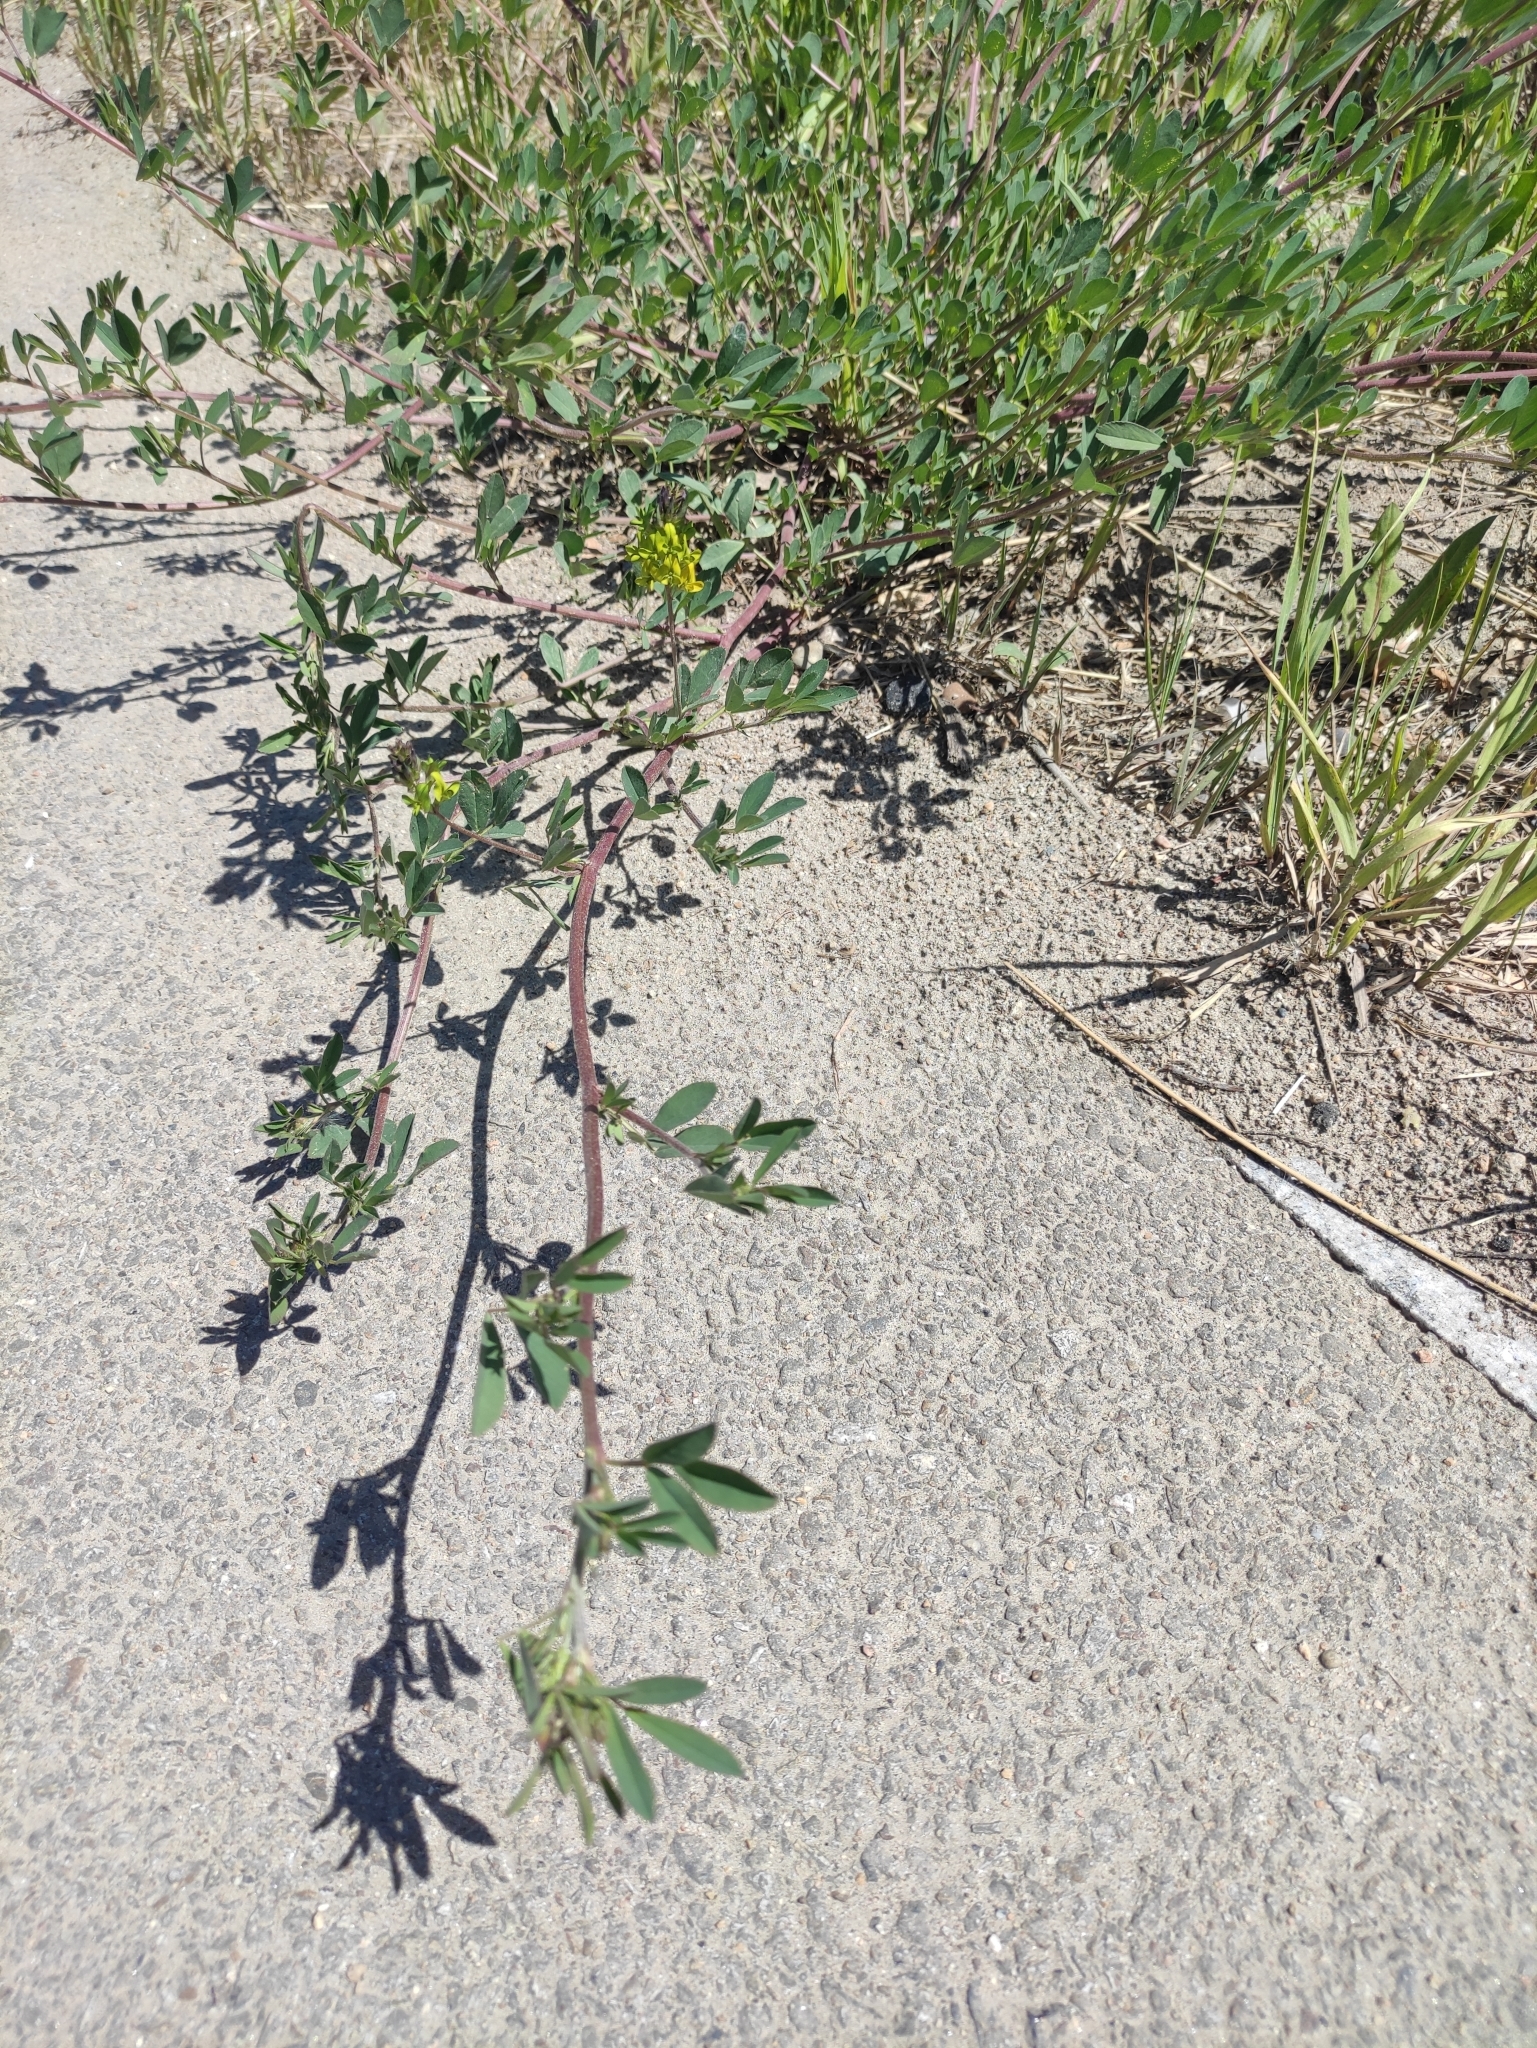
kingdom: Plantae
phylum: Tracheophyta
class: Magnoliopsida
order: Fabales
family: Fabaceae
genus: Medicago
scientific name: Medicago varia
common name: Sand lucerne
